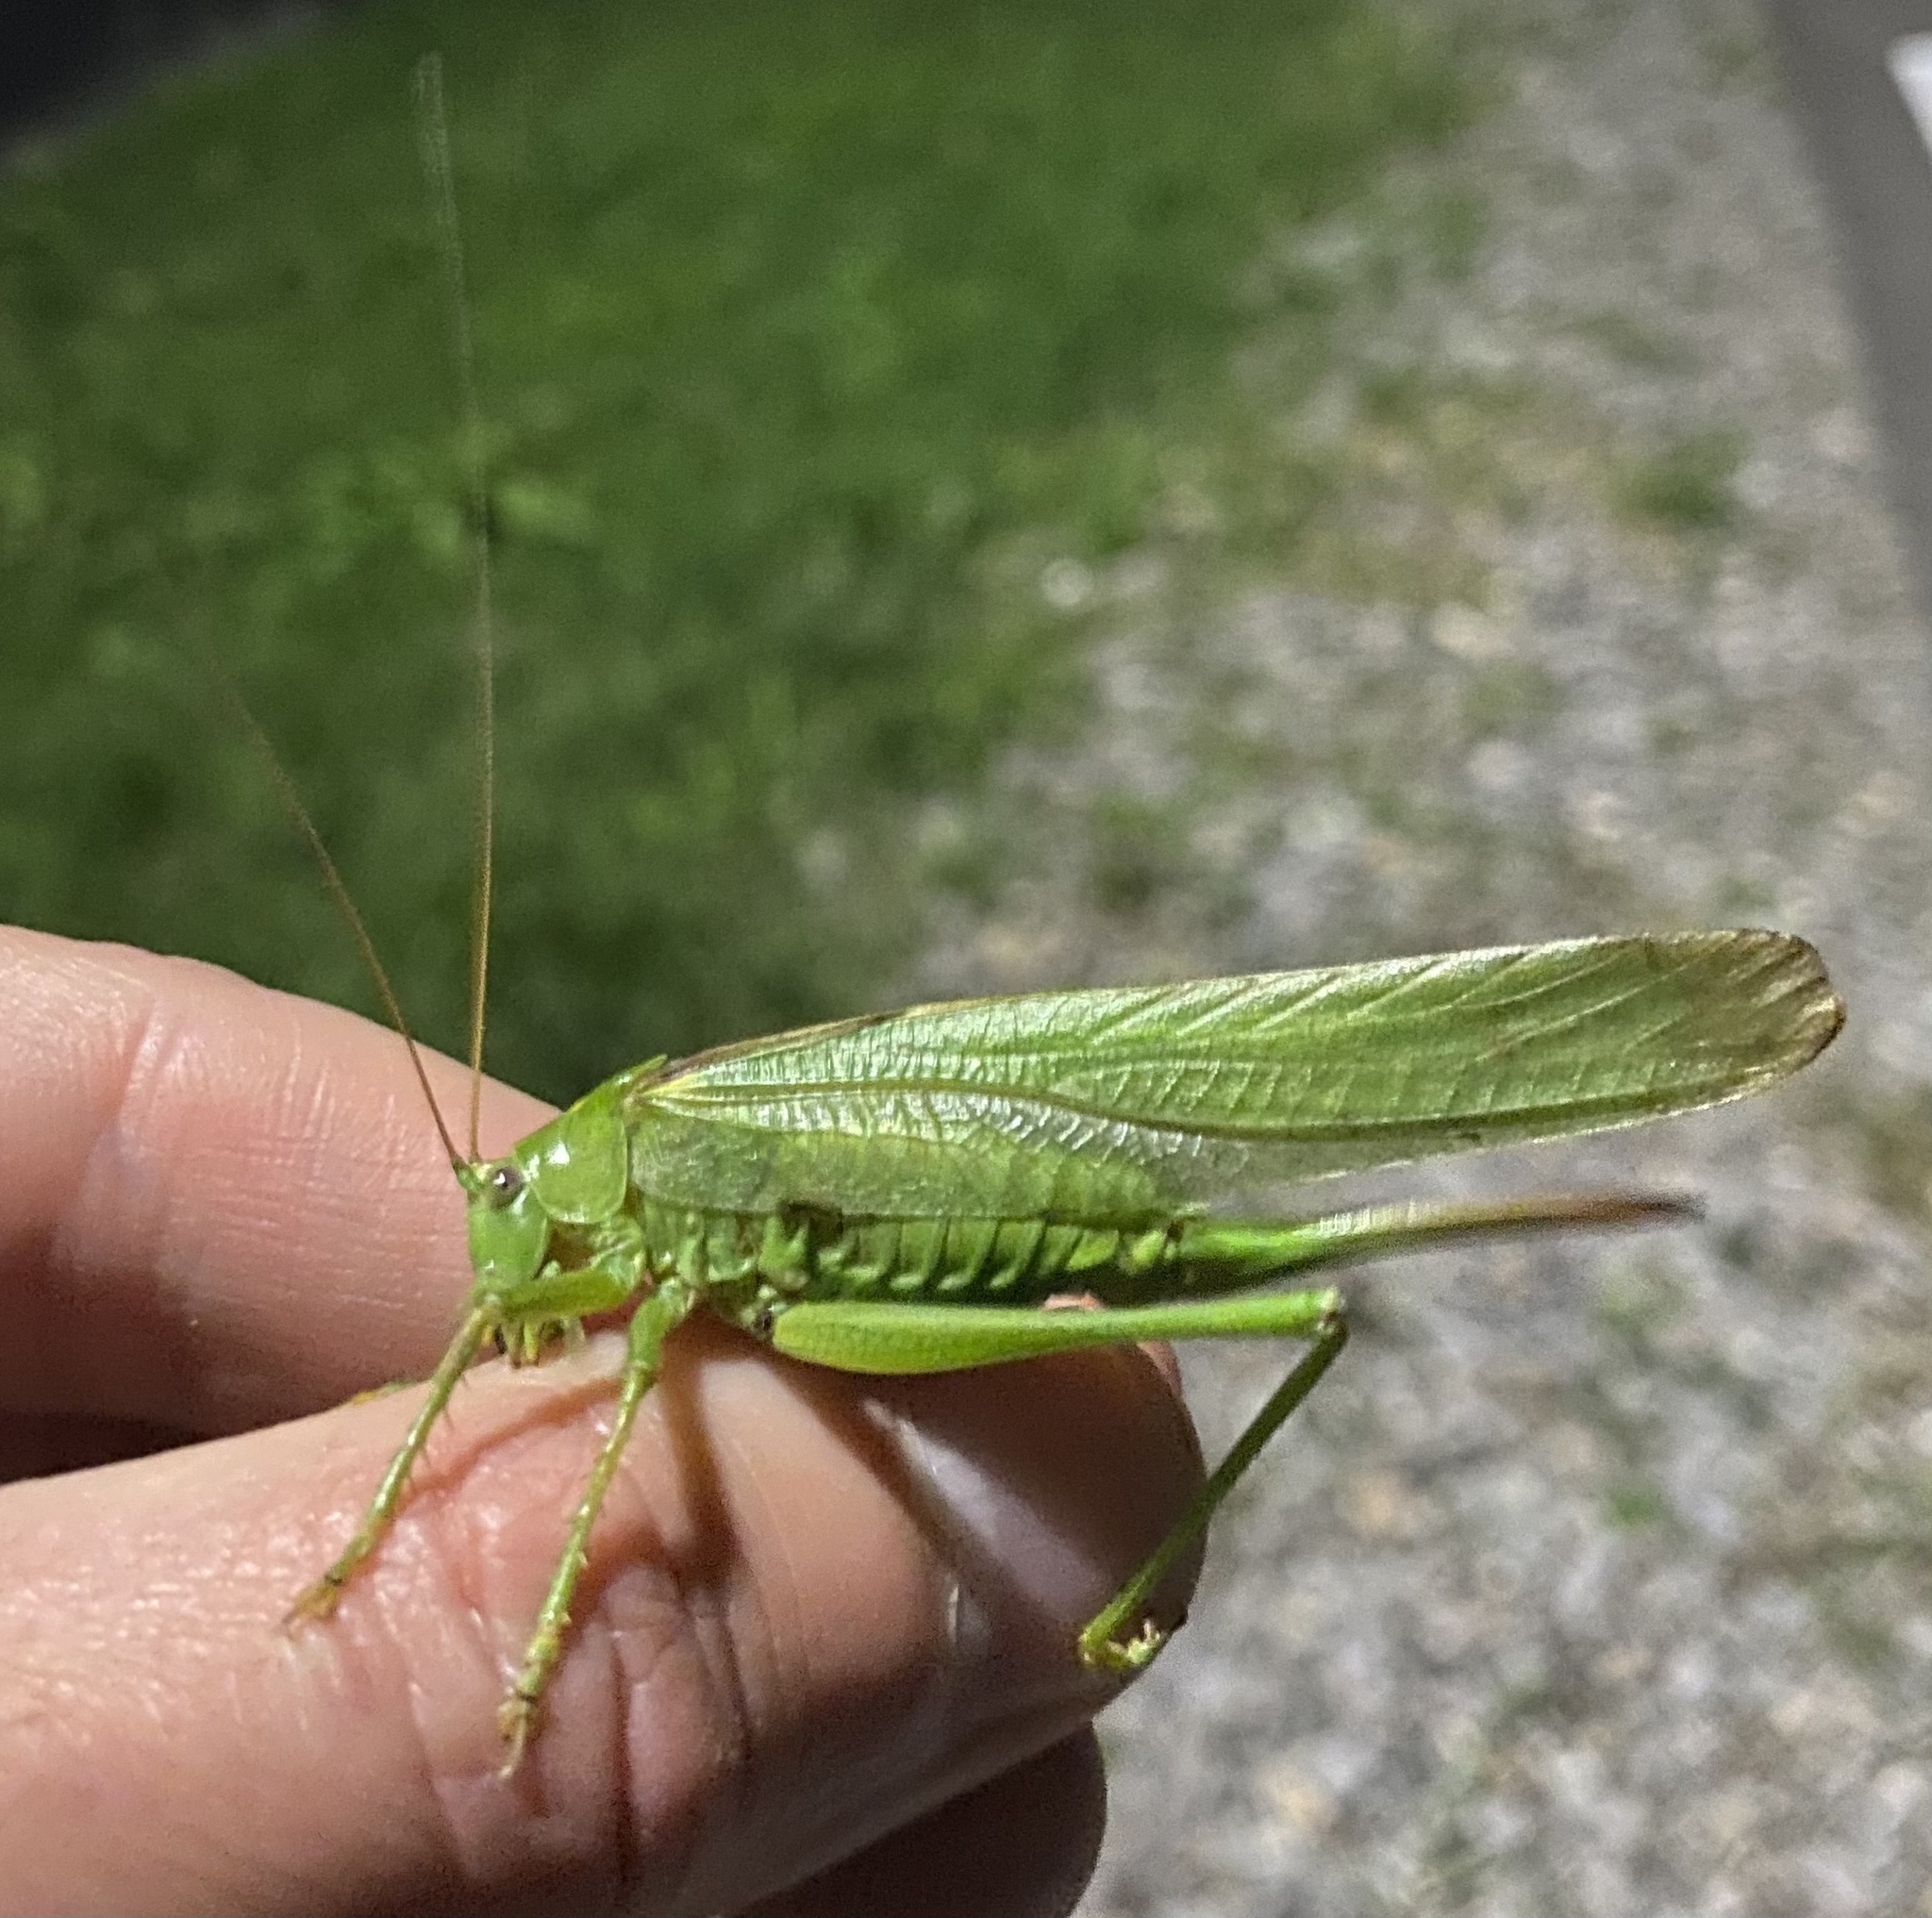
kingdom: Animalia
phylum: Arthropoda
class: Insecta
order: Orthoptera
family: Tettigoniidae
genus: Tettigonia
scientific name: Tettigonia viridissima
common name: Great green bush-cricket
